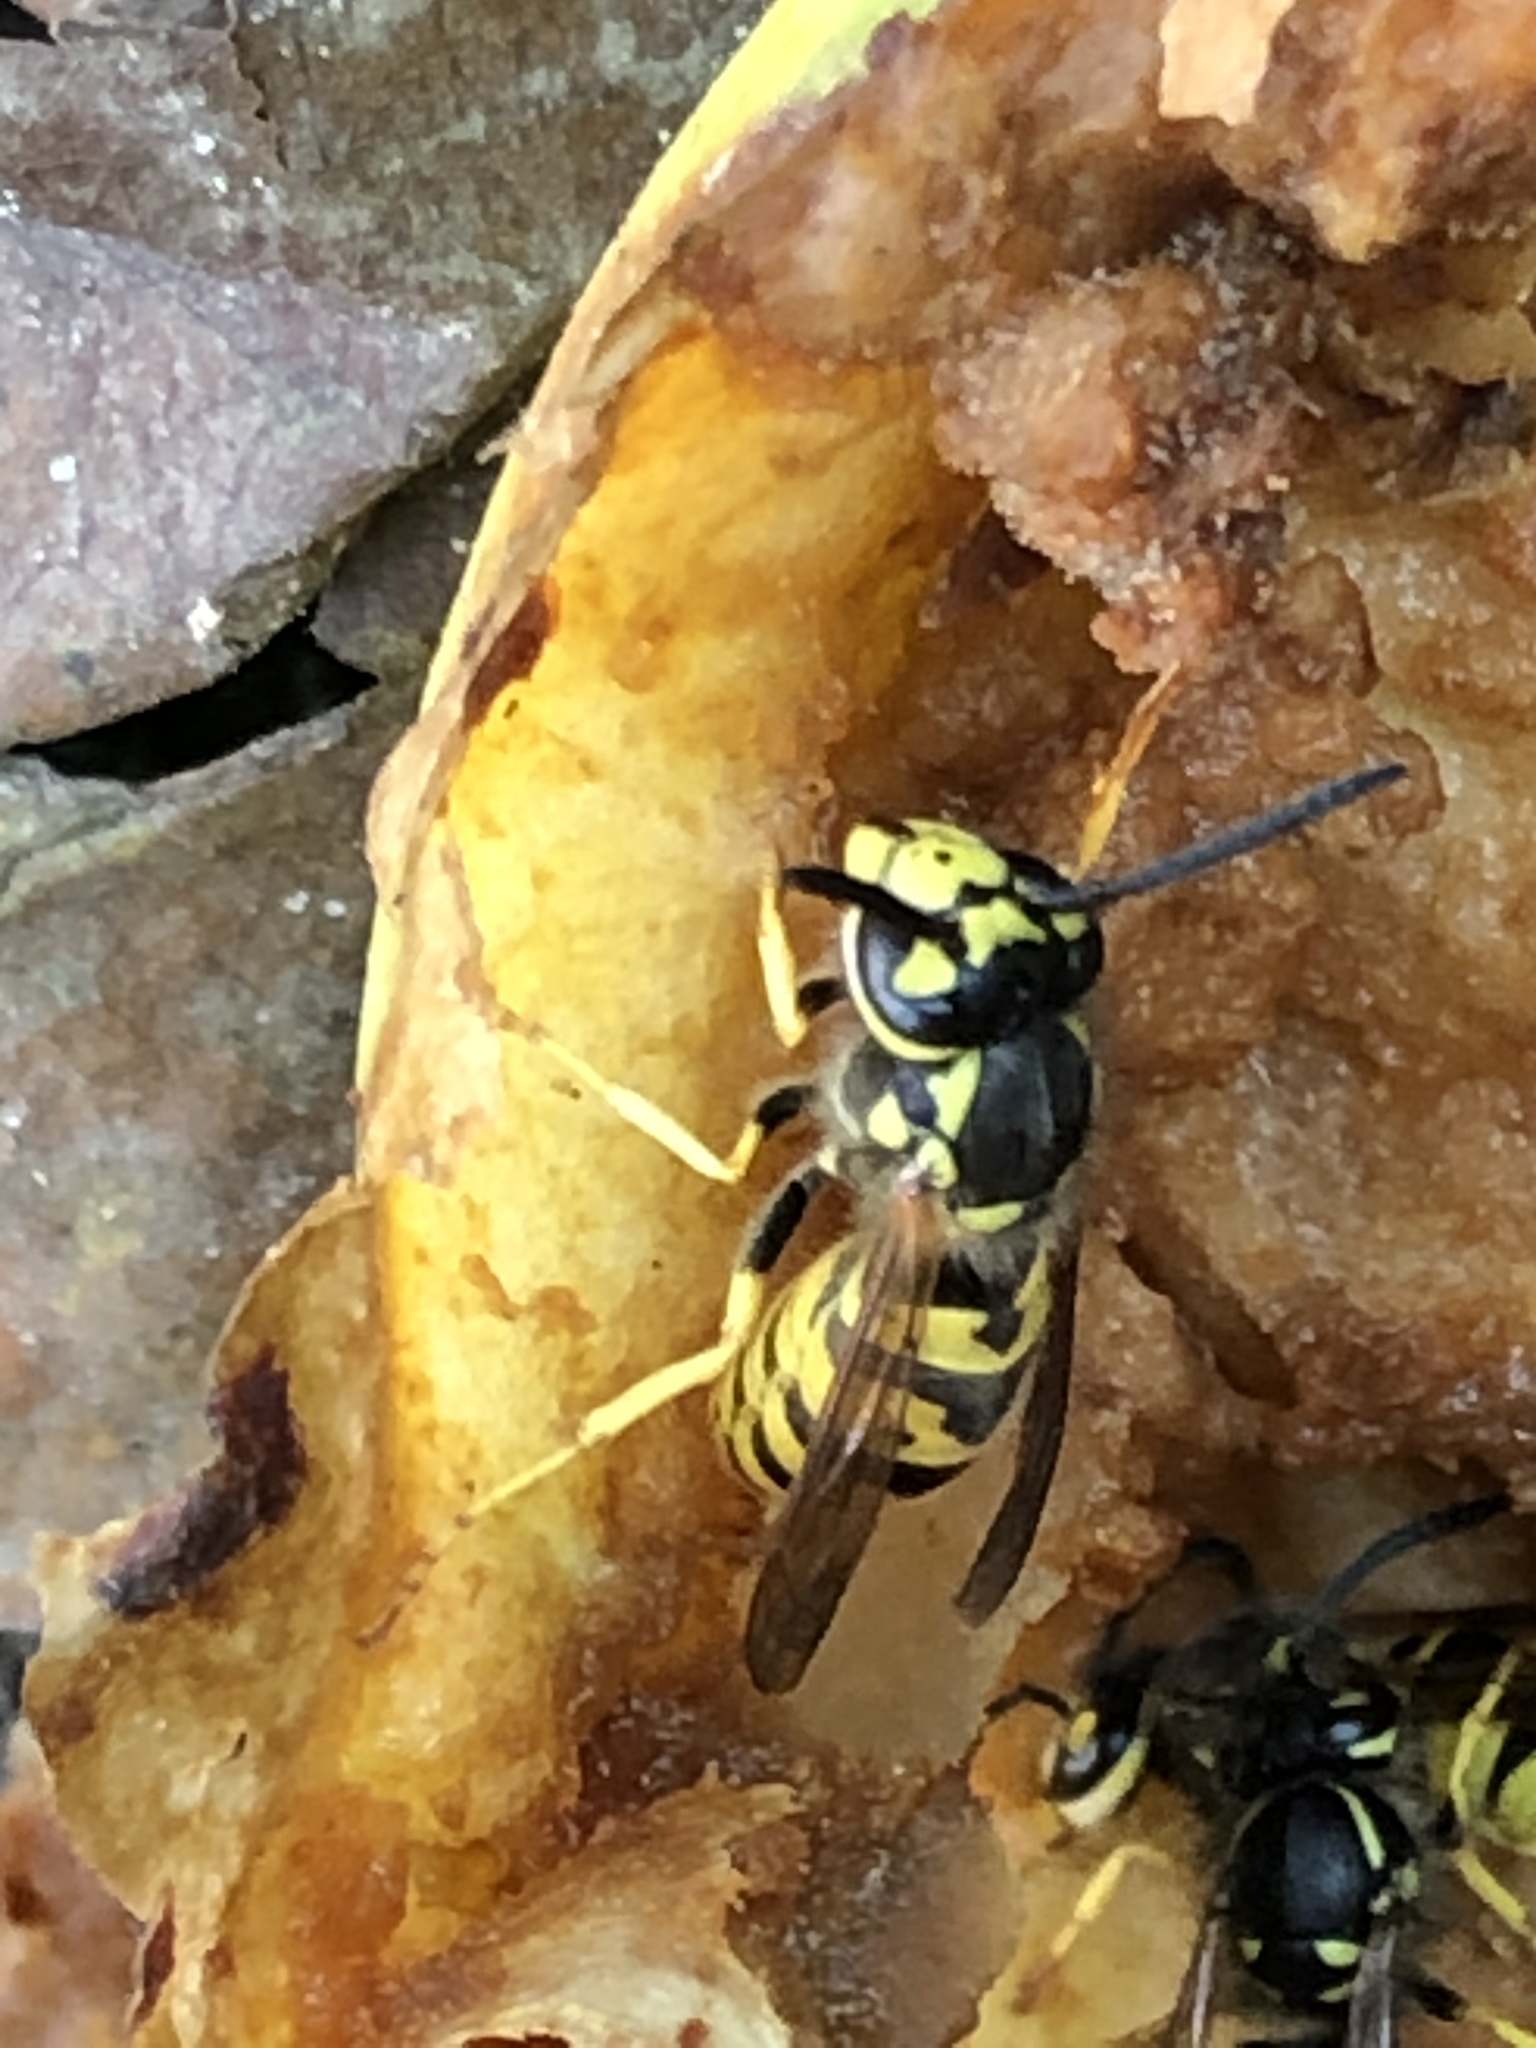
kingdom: Animalia
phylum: Arthropoda
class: Insecta
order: Hymenoptera
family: Vespidae
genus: Vespula
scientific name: Vespula germanica
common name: German wasp
